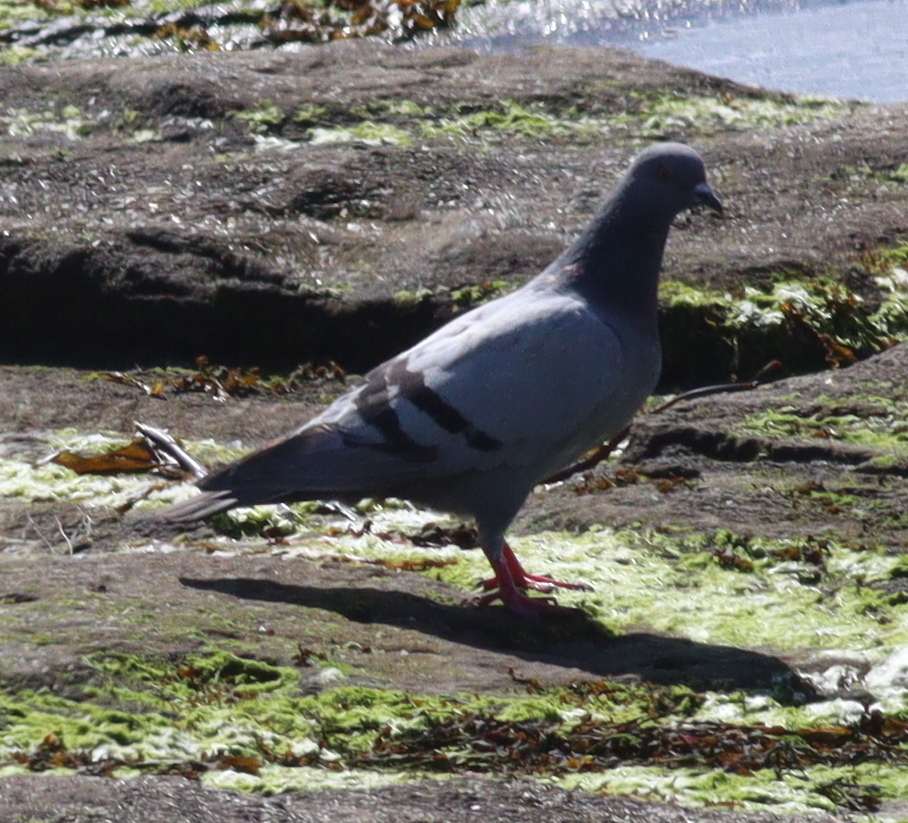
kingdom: Animalia
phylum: Chordata
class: Aves
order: Columbiformes
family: Columbidae
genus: Columba
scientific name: Columba livia
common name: Rock pigeon
